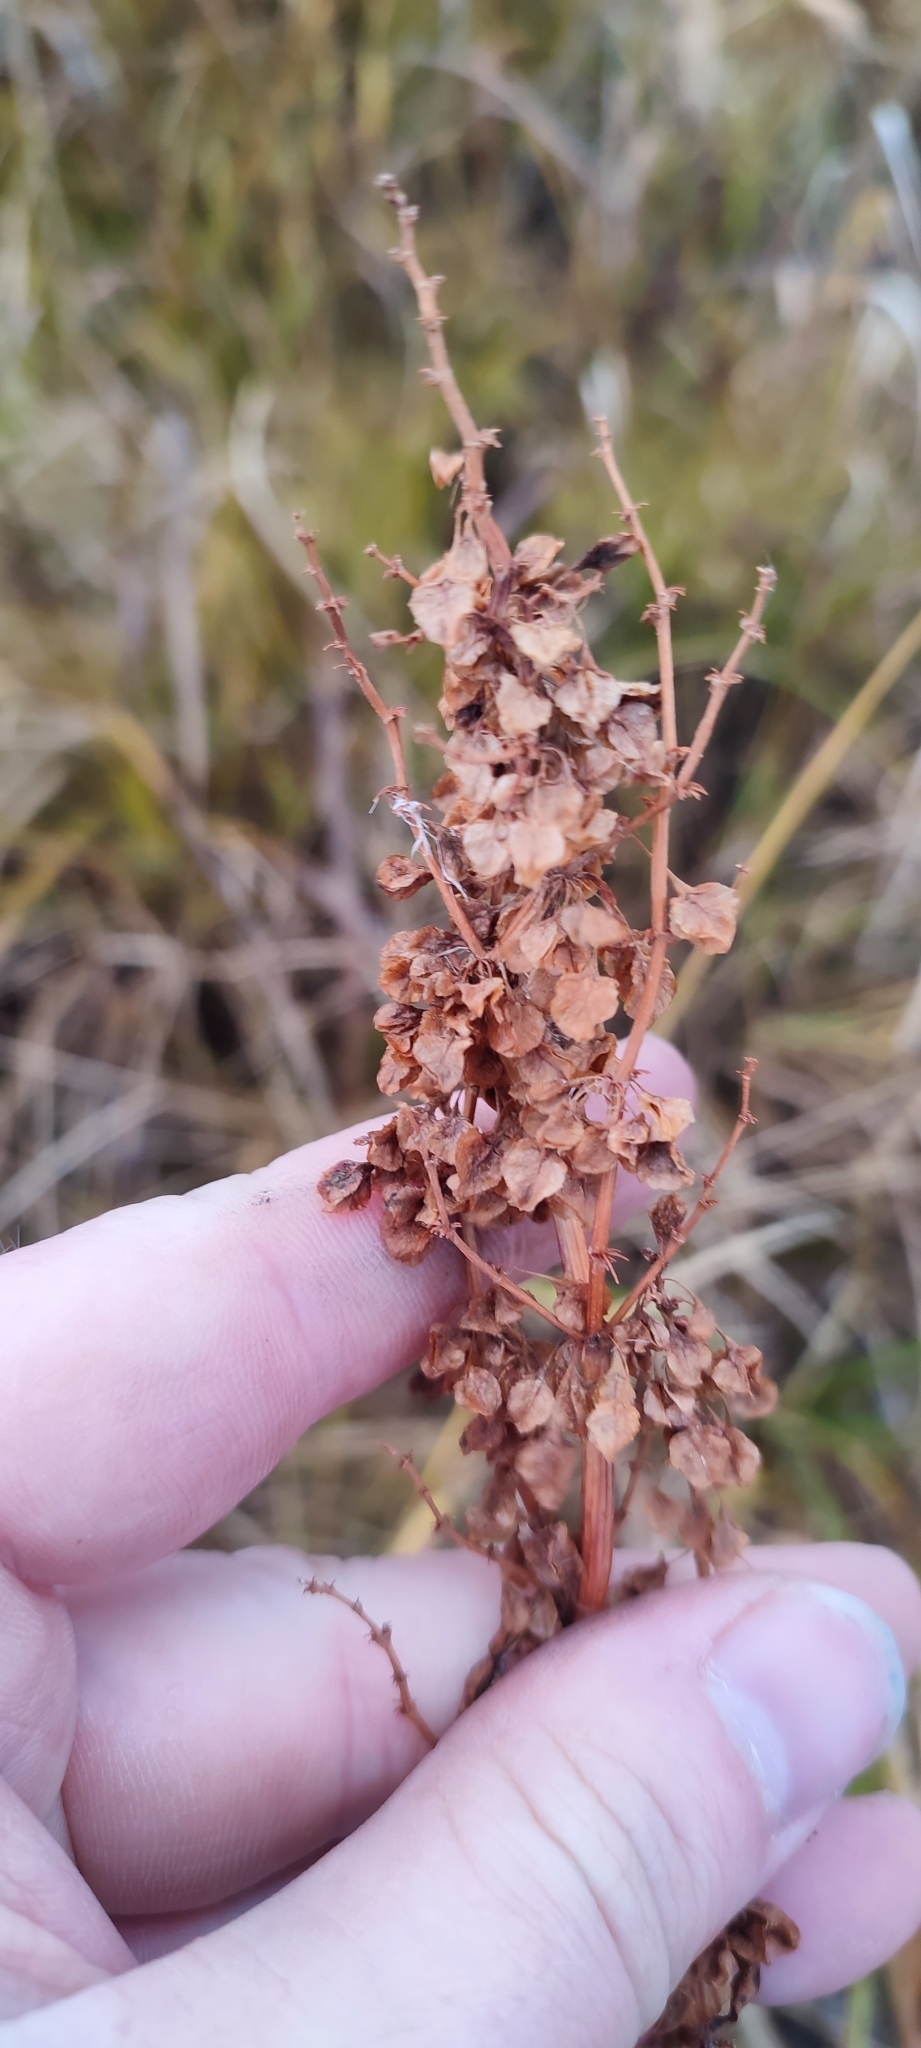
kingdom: Plantae
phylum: Tracheophyta
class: Magnoliopsida
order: Caryophyllales
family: Polygonaceae
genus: Rumex
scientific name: Rumex aquaticus
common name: Scottish dock
